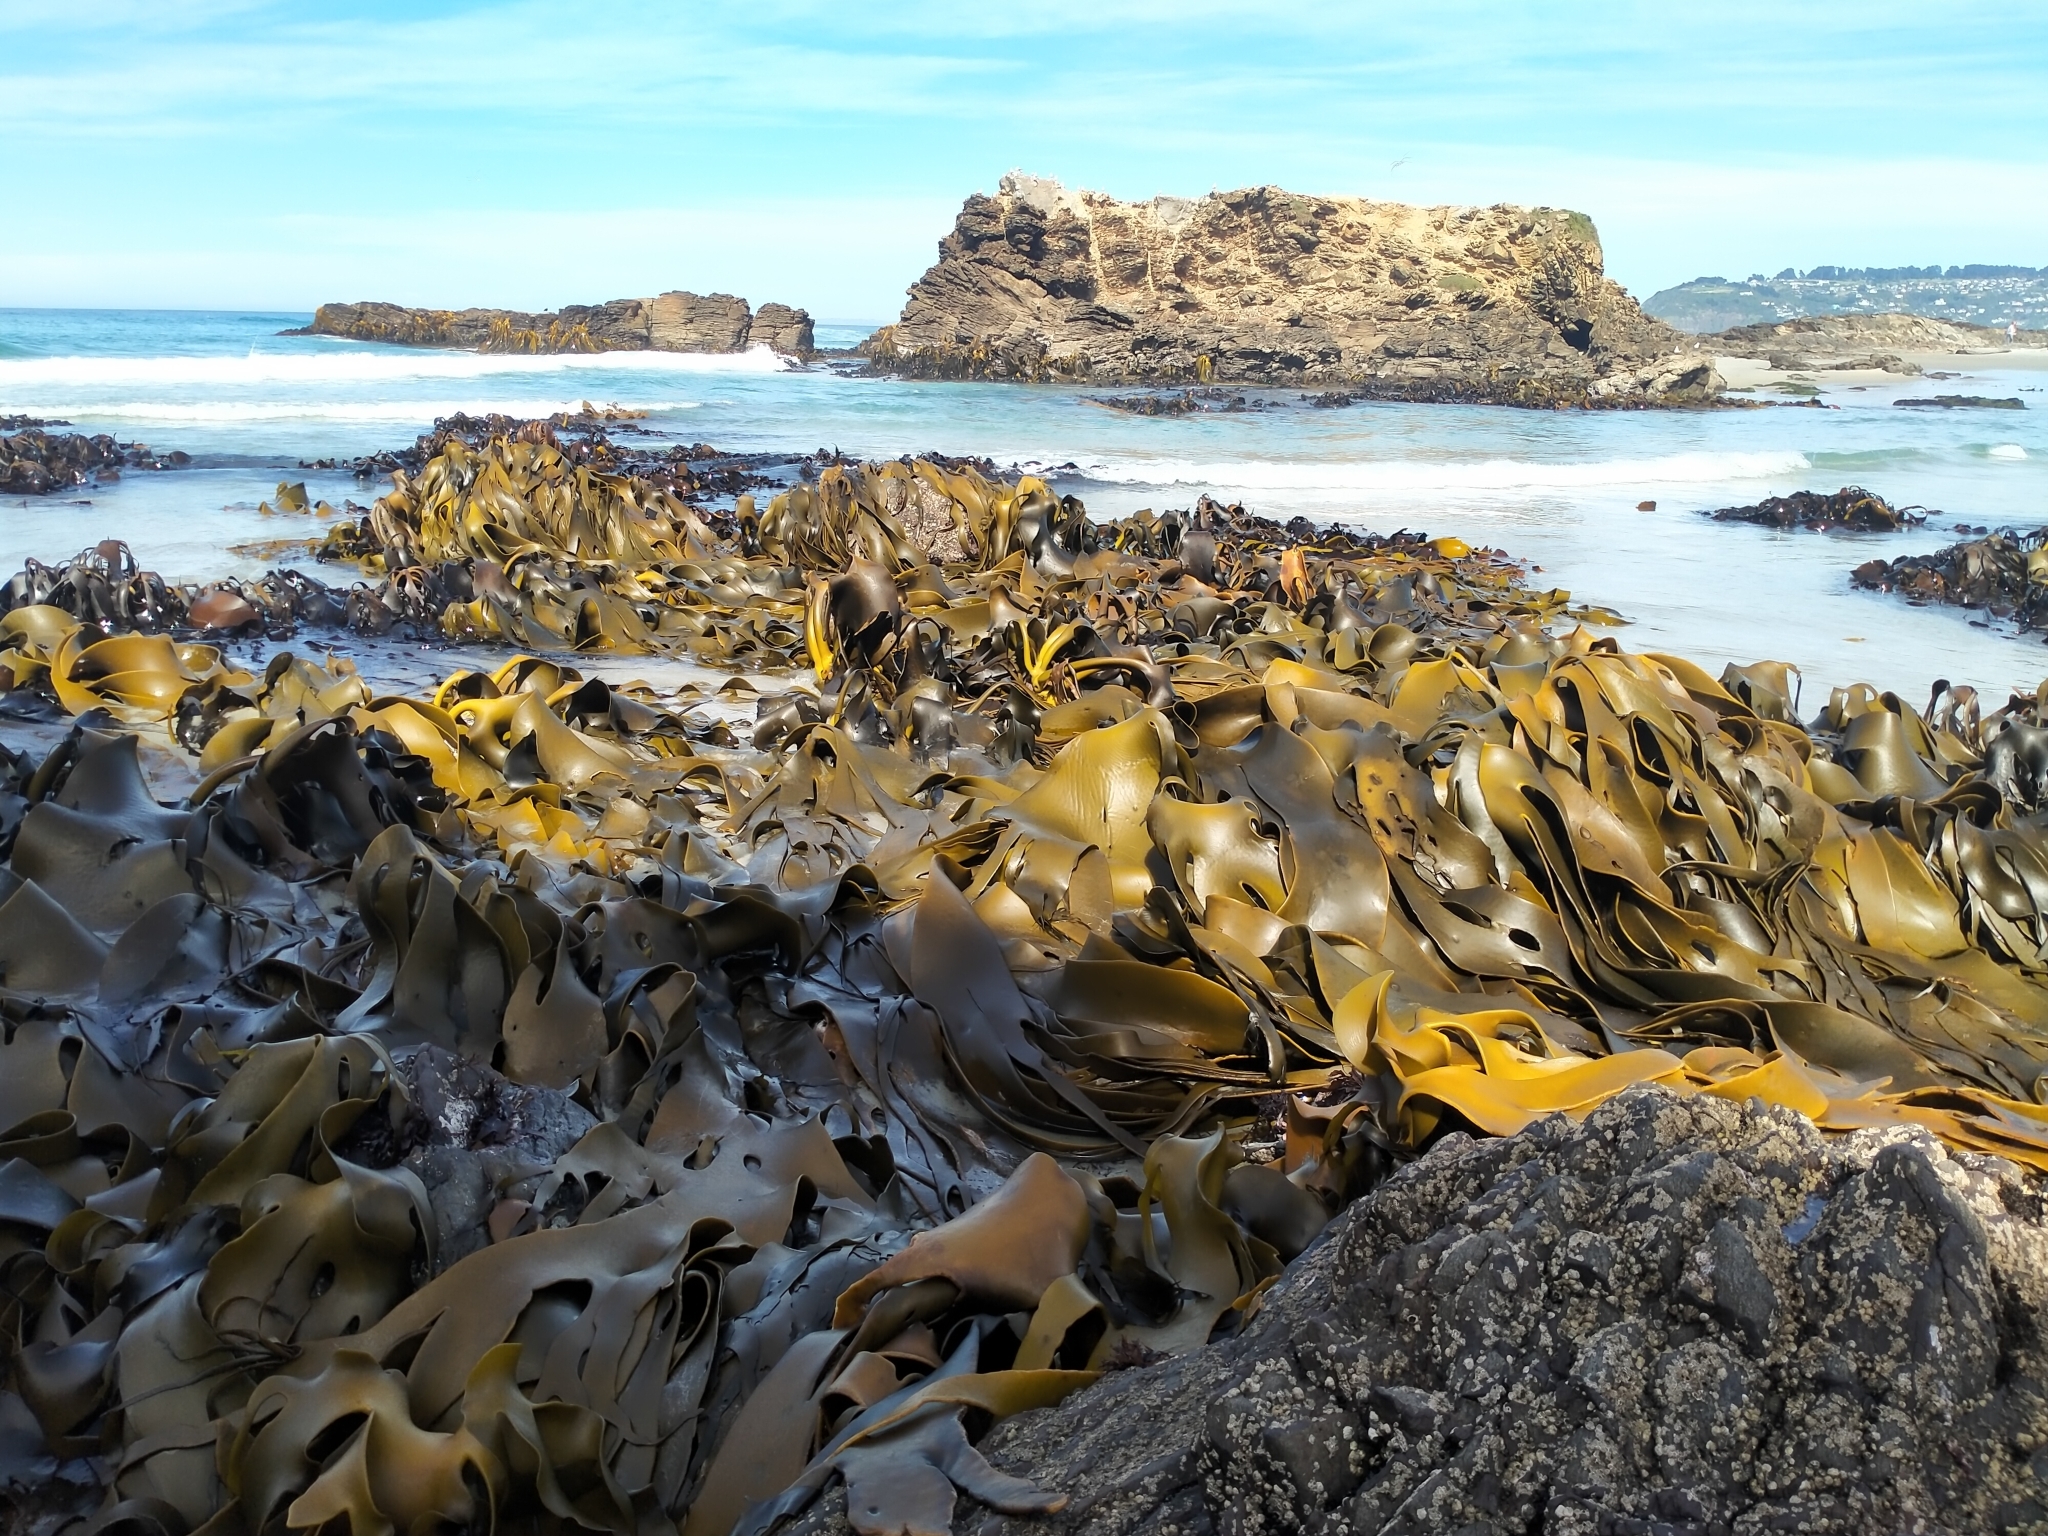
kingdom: Chromista
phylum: Ochrophyta
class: Phaeophyceae
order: Fucales
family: Durvillaeaceae
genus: Durvillaea
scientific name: Durvillaea antarctica
